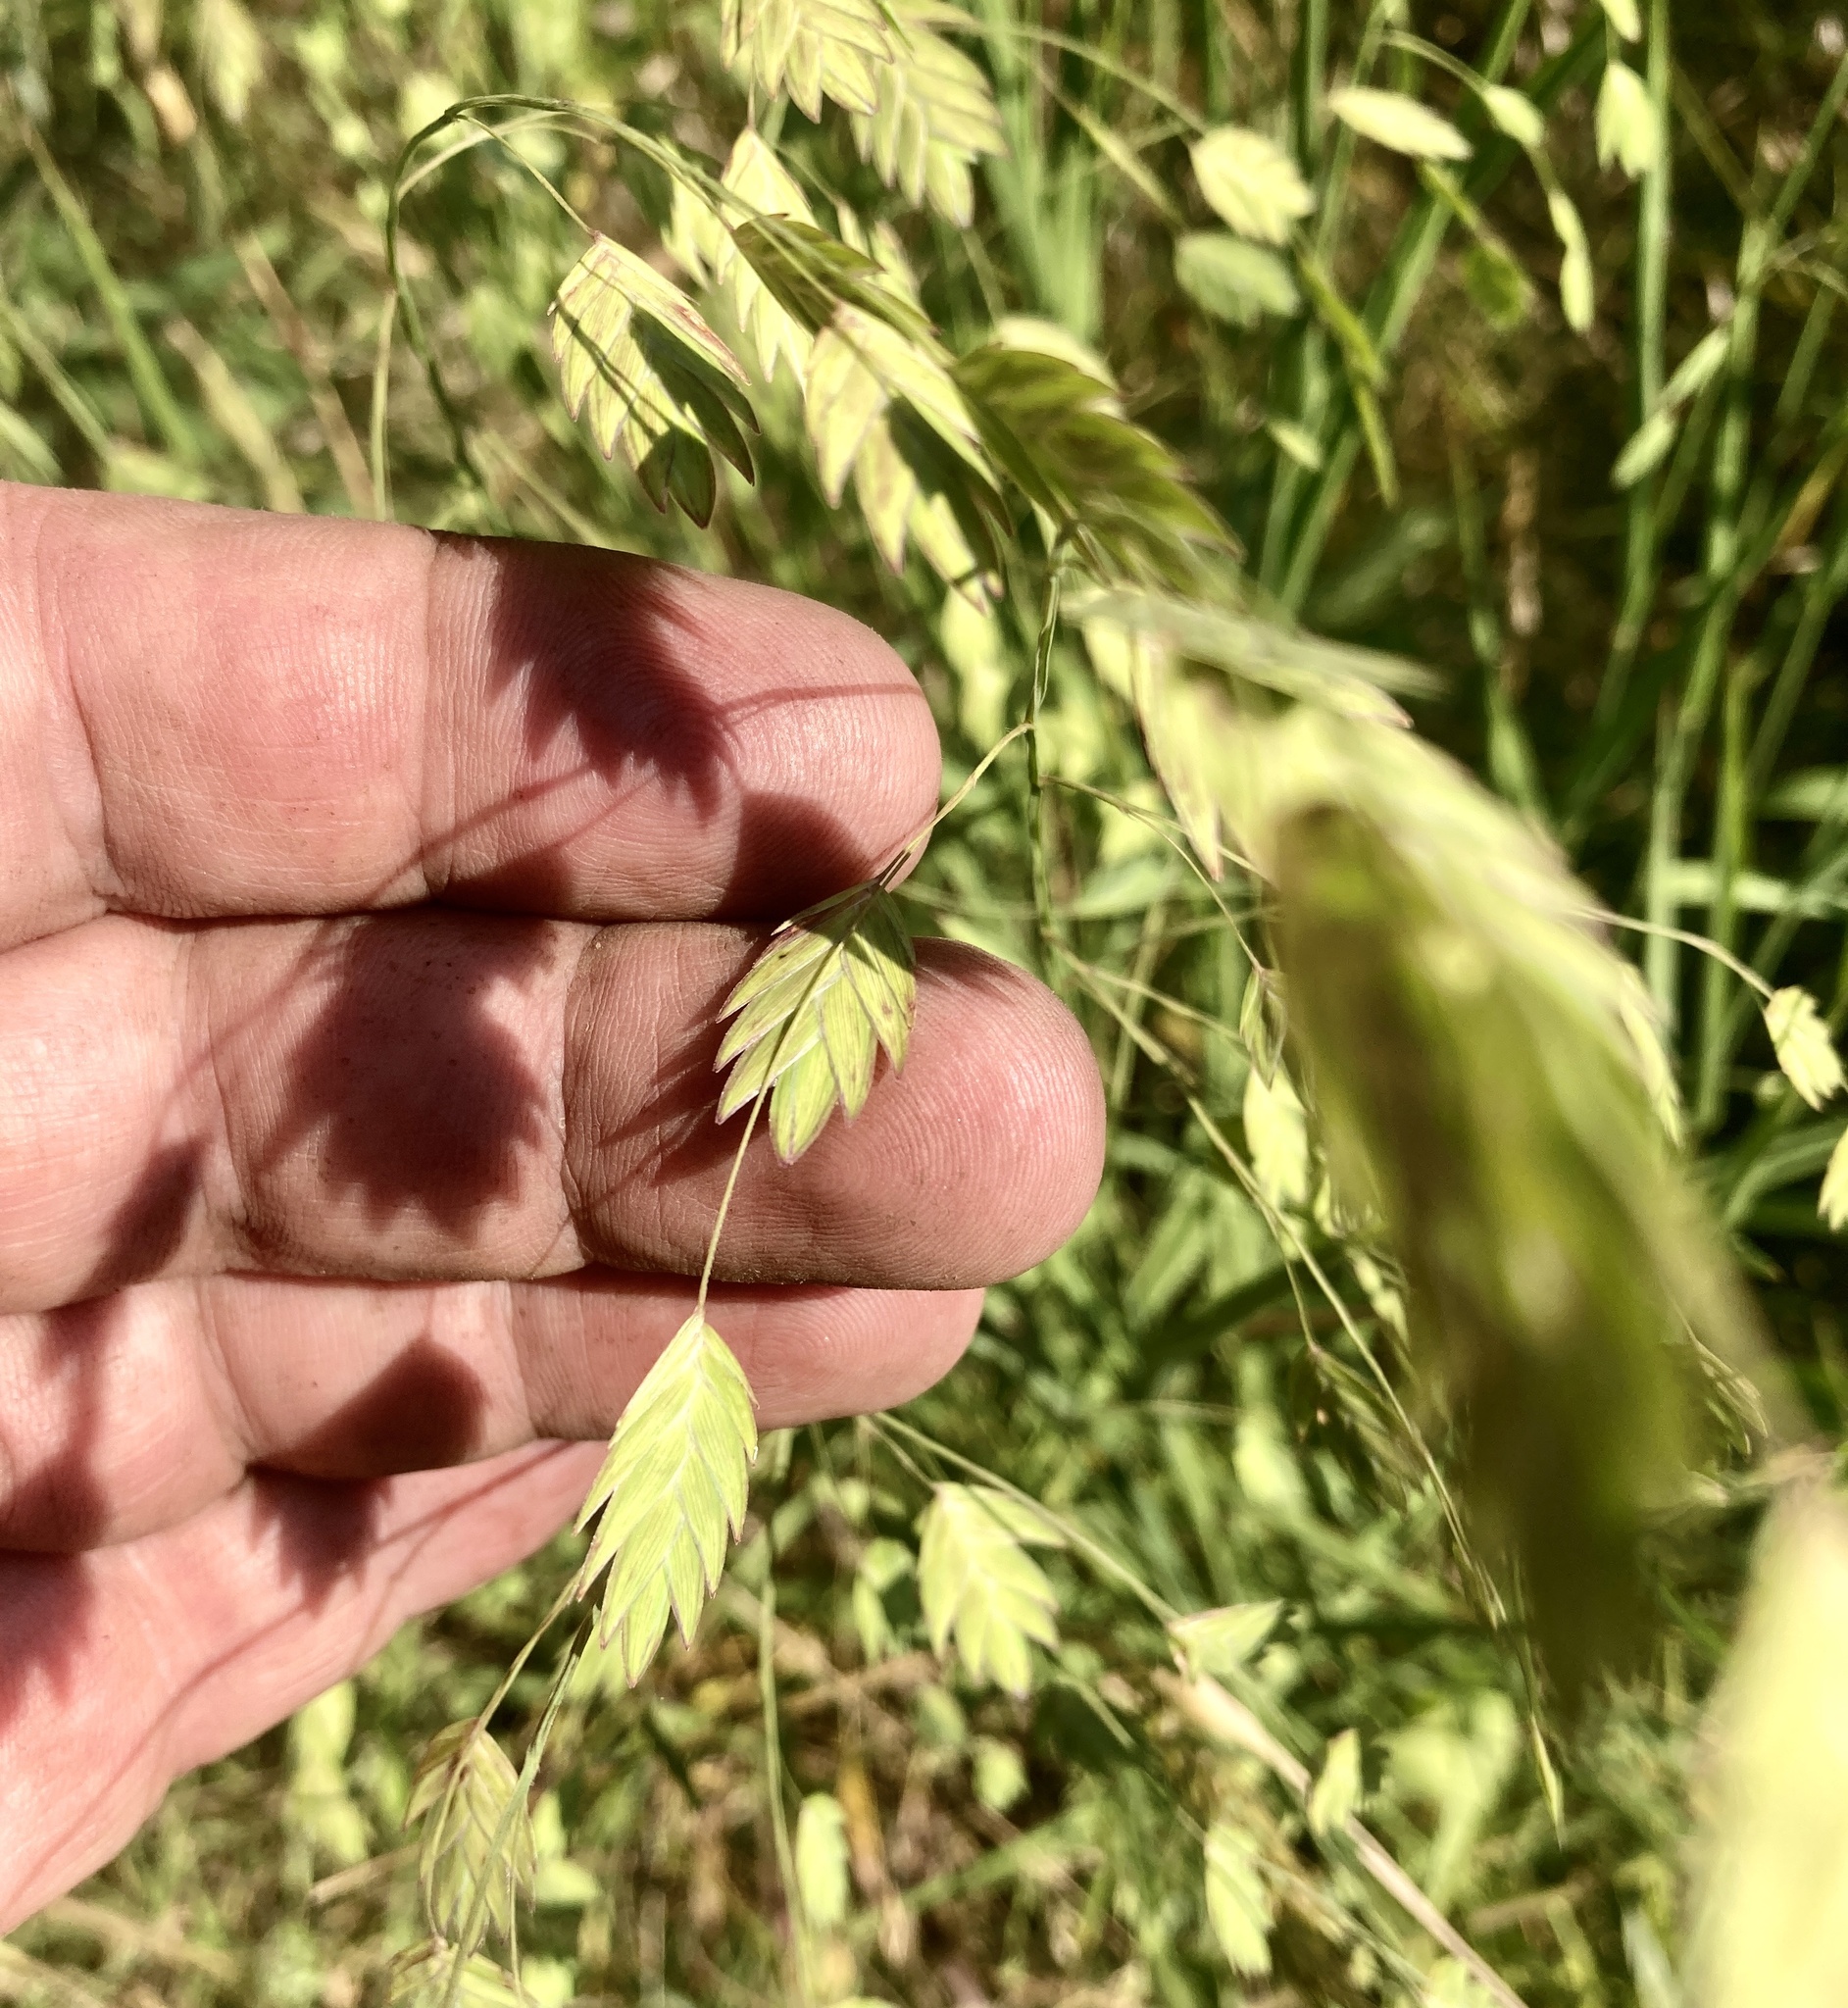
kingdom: Plantae
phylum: Tracheophyta
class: Liliopsida
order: Poales
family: Poaceae
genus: Chasmanthium
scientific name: Chasmanthium latifolium
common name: Broad-leaved chasmanthium
